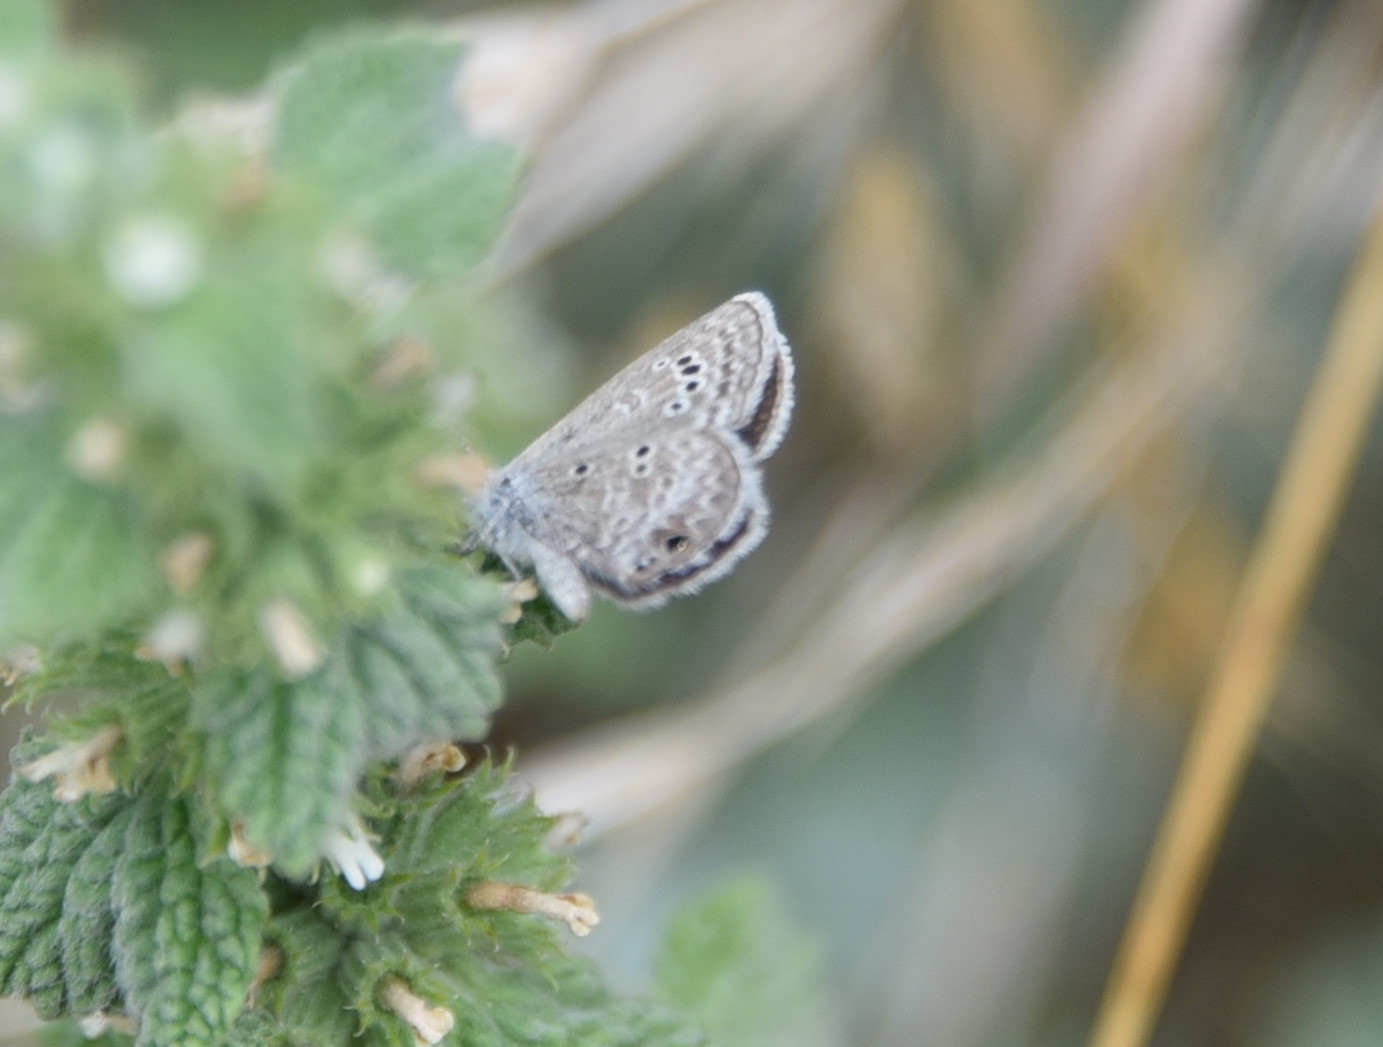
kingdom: Animalia
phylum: Arthropoda
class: Insecta
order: Lepidoptera
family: Lycaenidae
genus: Echinargus
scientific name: Echinargus isola
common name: Reakirt's blue
